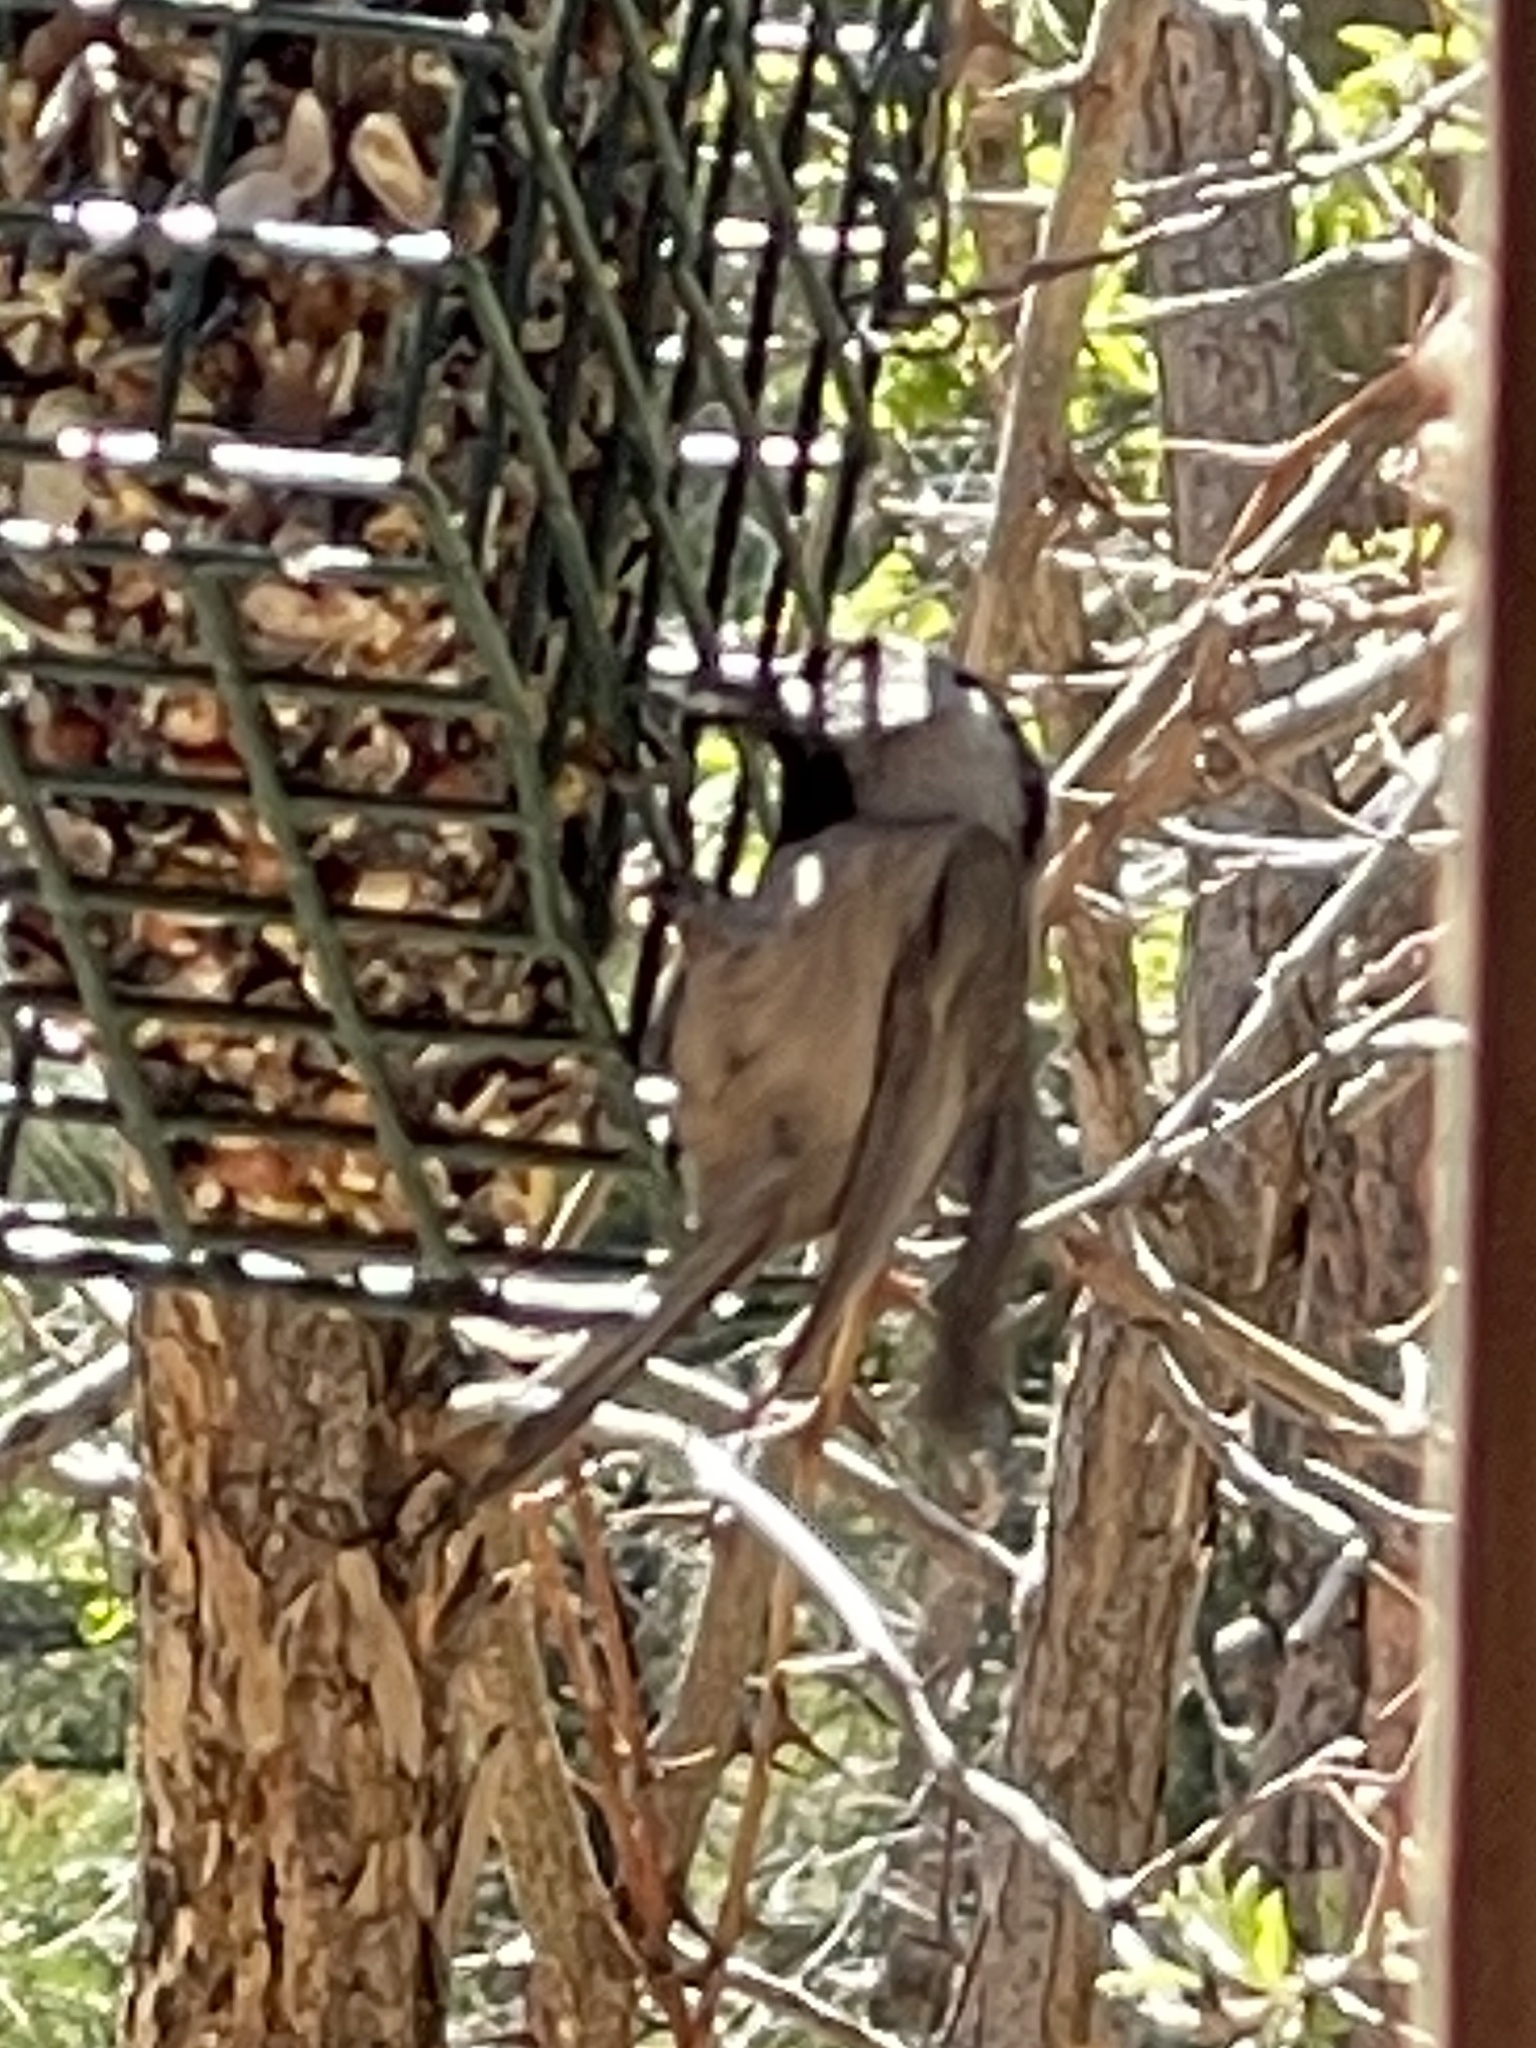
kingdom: Animalia
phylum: Chordata
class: Aves
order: Passeriformes
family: Paridae
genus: Poecile
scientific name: Poecile gambeli
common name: Mountain chickadee
